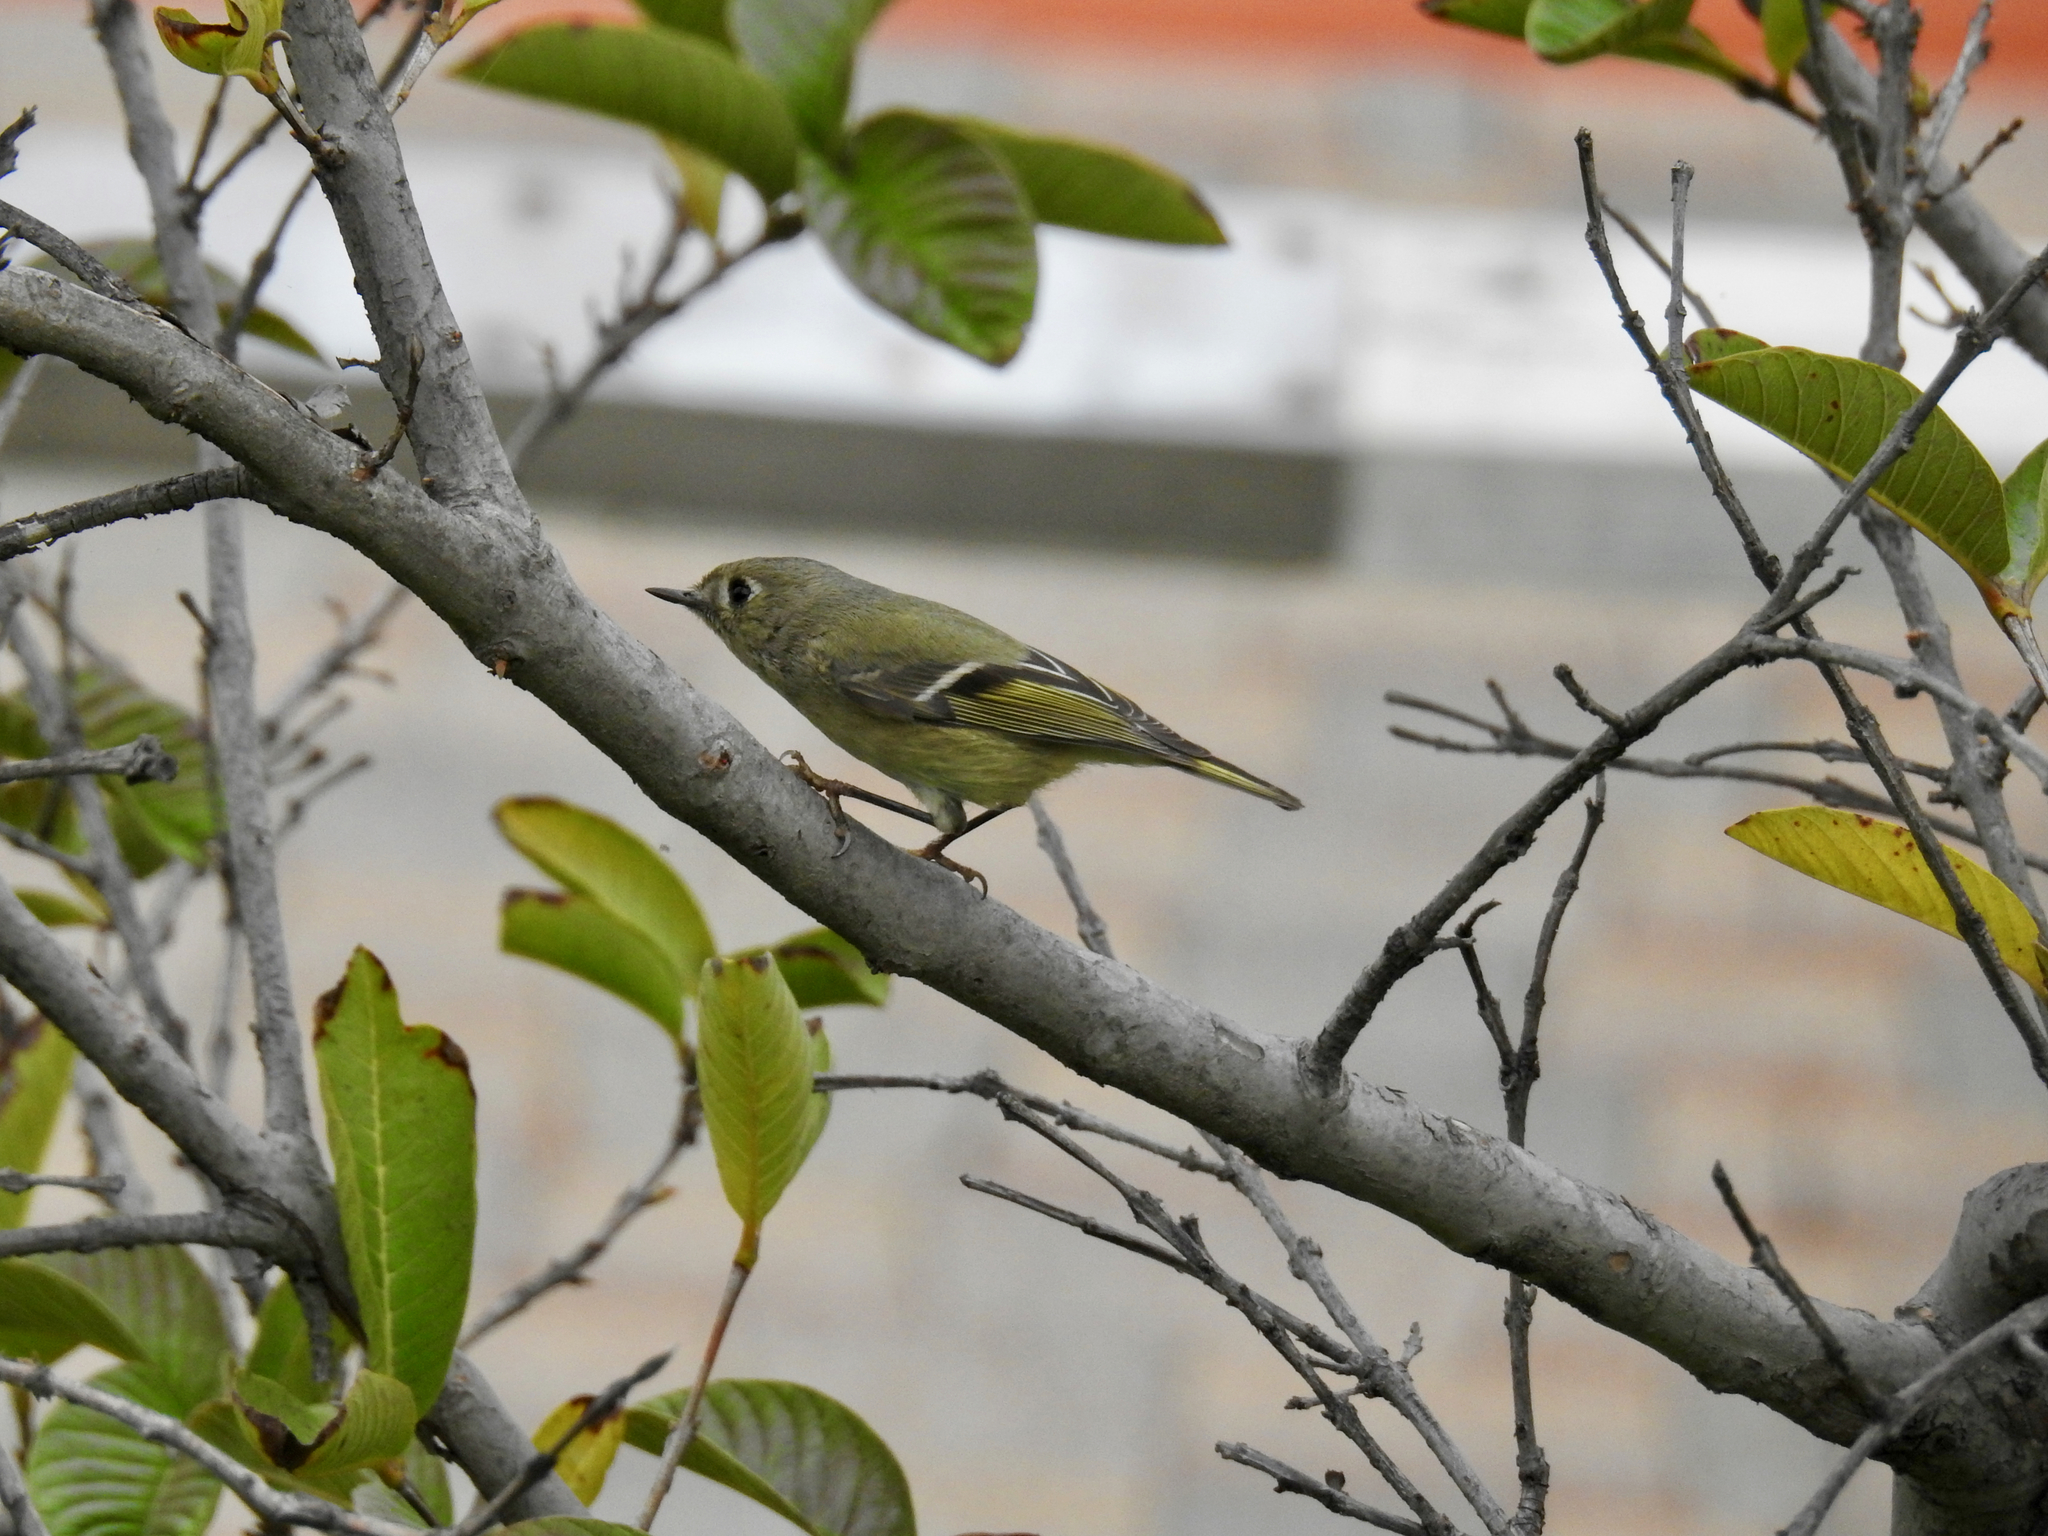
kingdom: Animalia
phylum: Chordata
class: Aves
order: Passeriformes
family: Regulidae
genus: Regulus
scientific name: Regulus calendula
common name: Ruby-crowned kinglet
